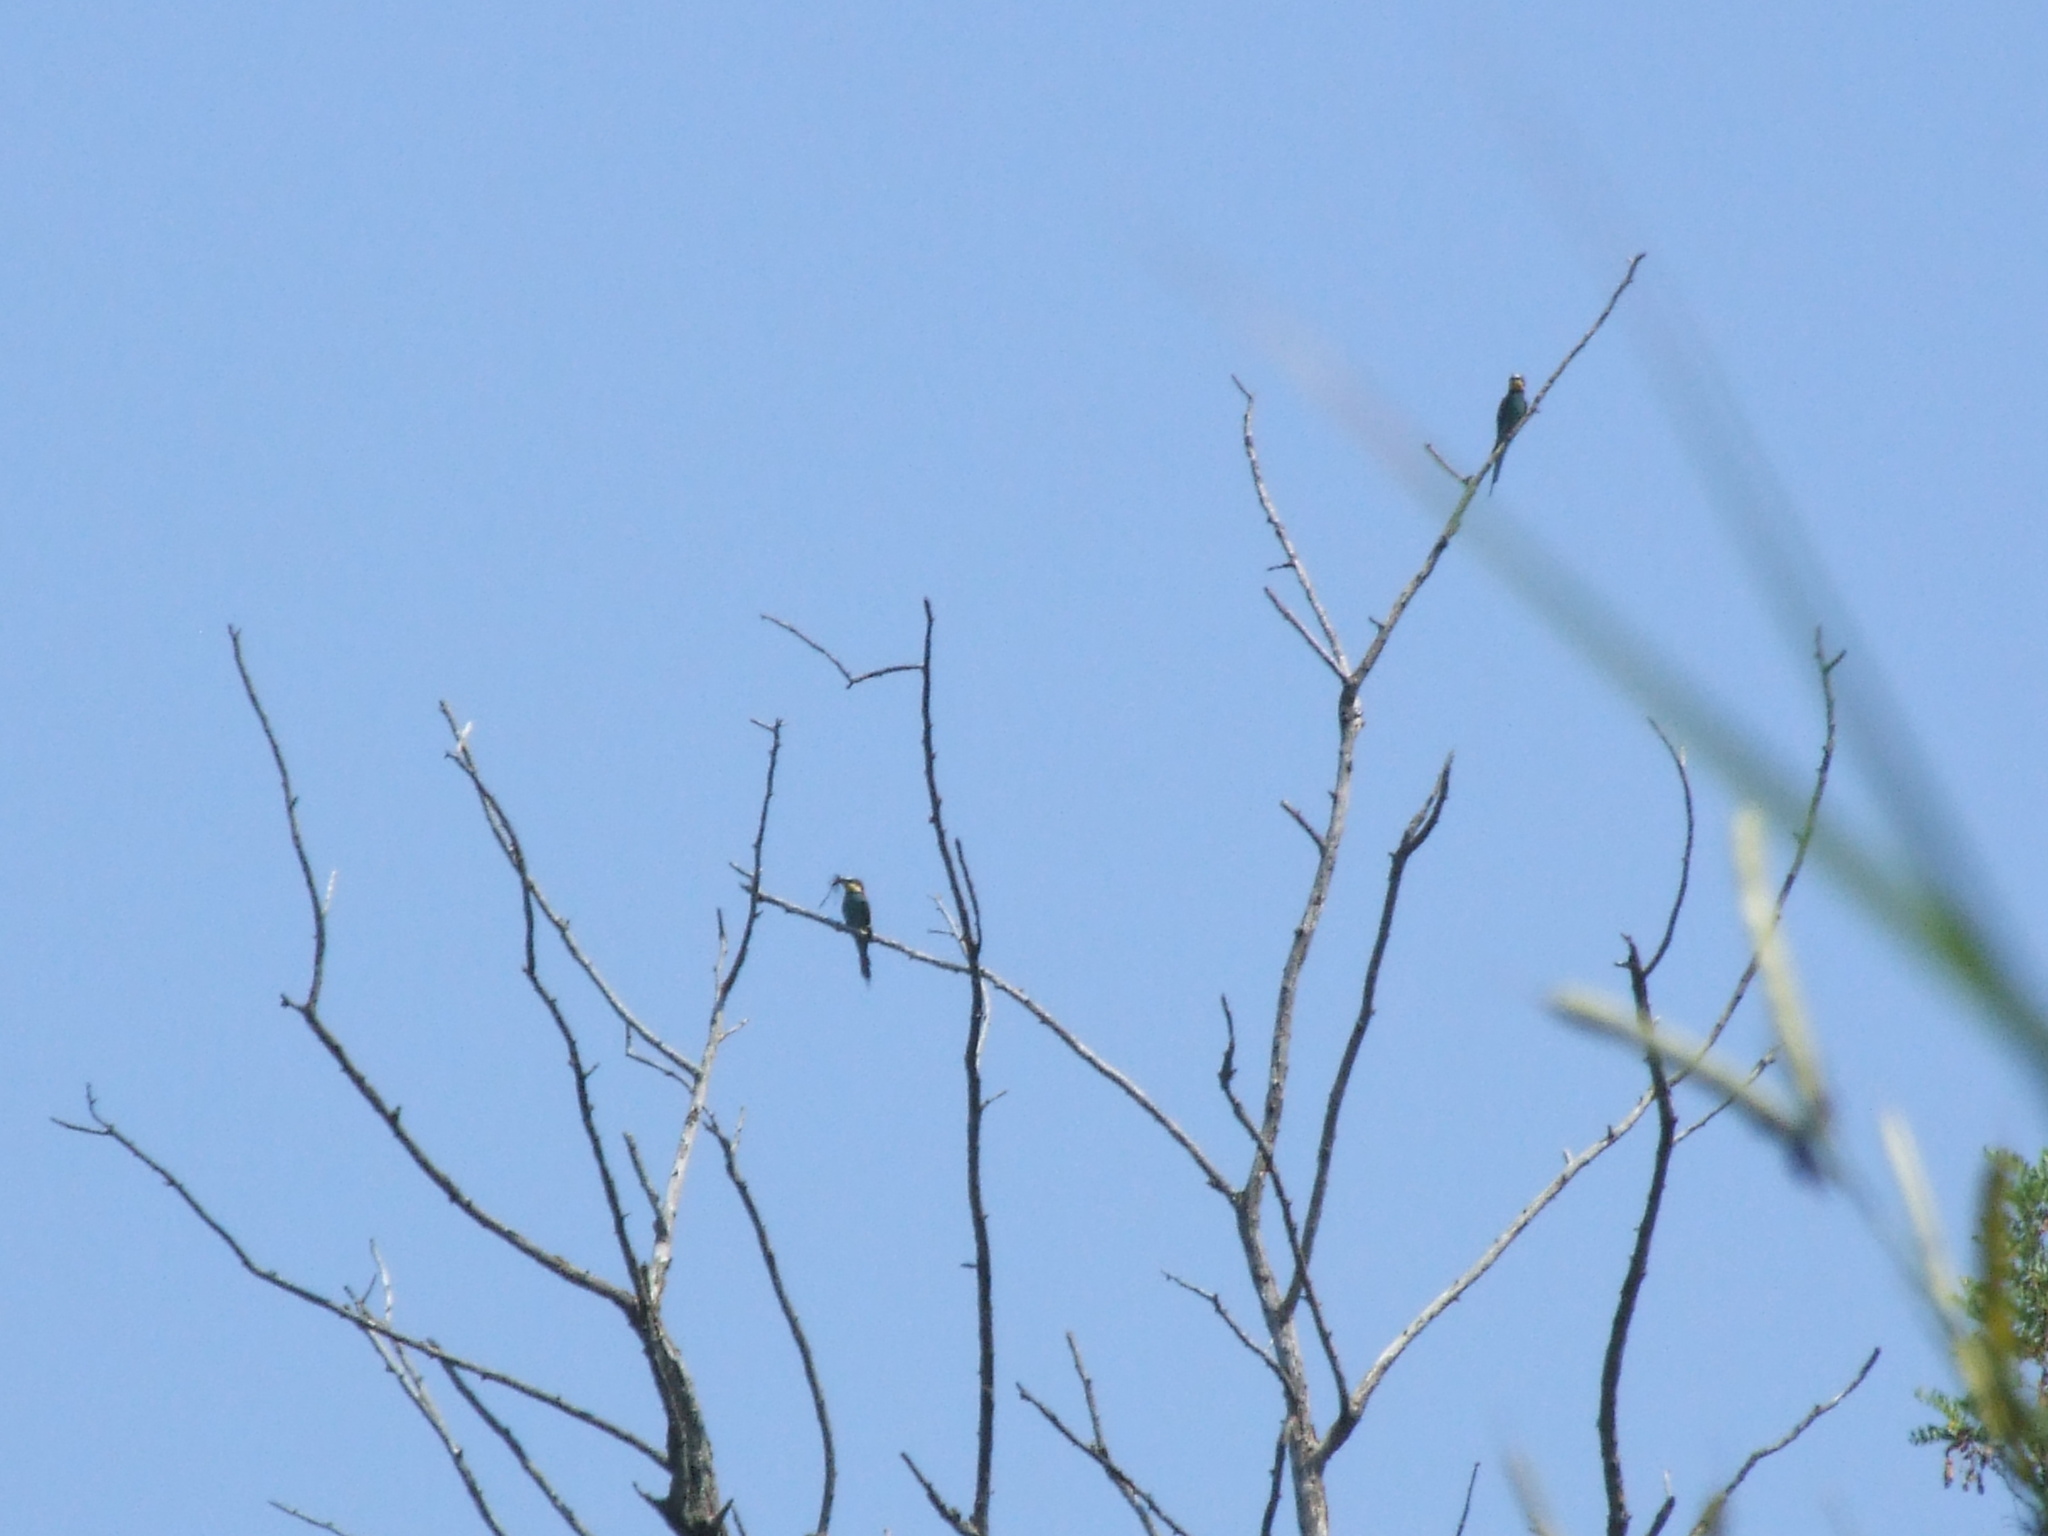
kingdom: Animalia
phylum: Chordata
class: Aves
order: Coraciiformes
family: Meropidae
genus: Merops
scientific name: Merops apiaster
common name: European bee-eater
